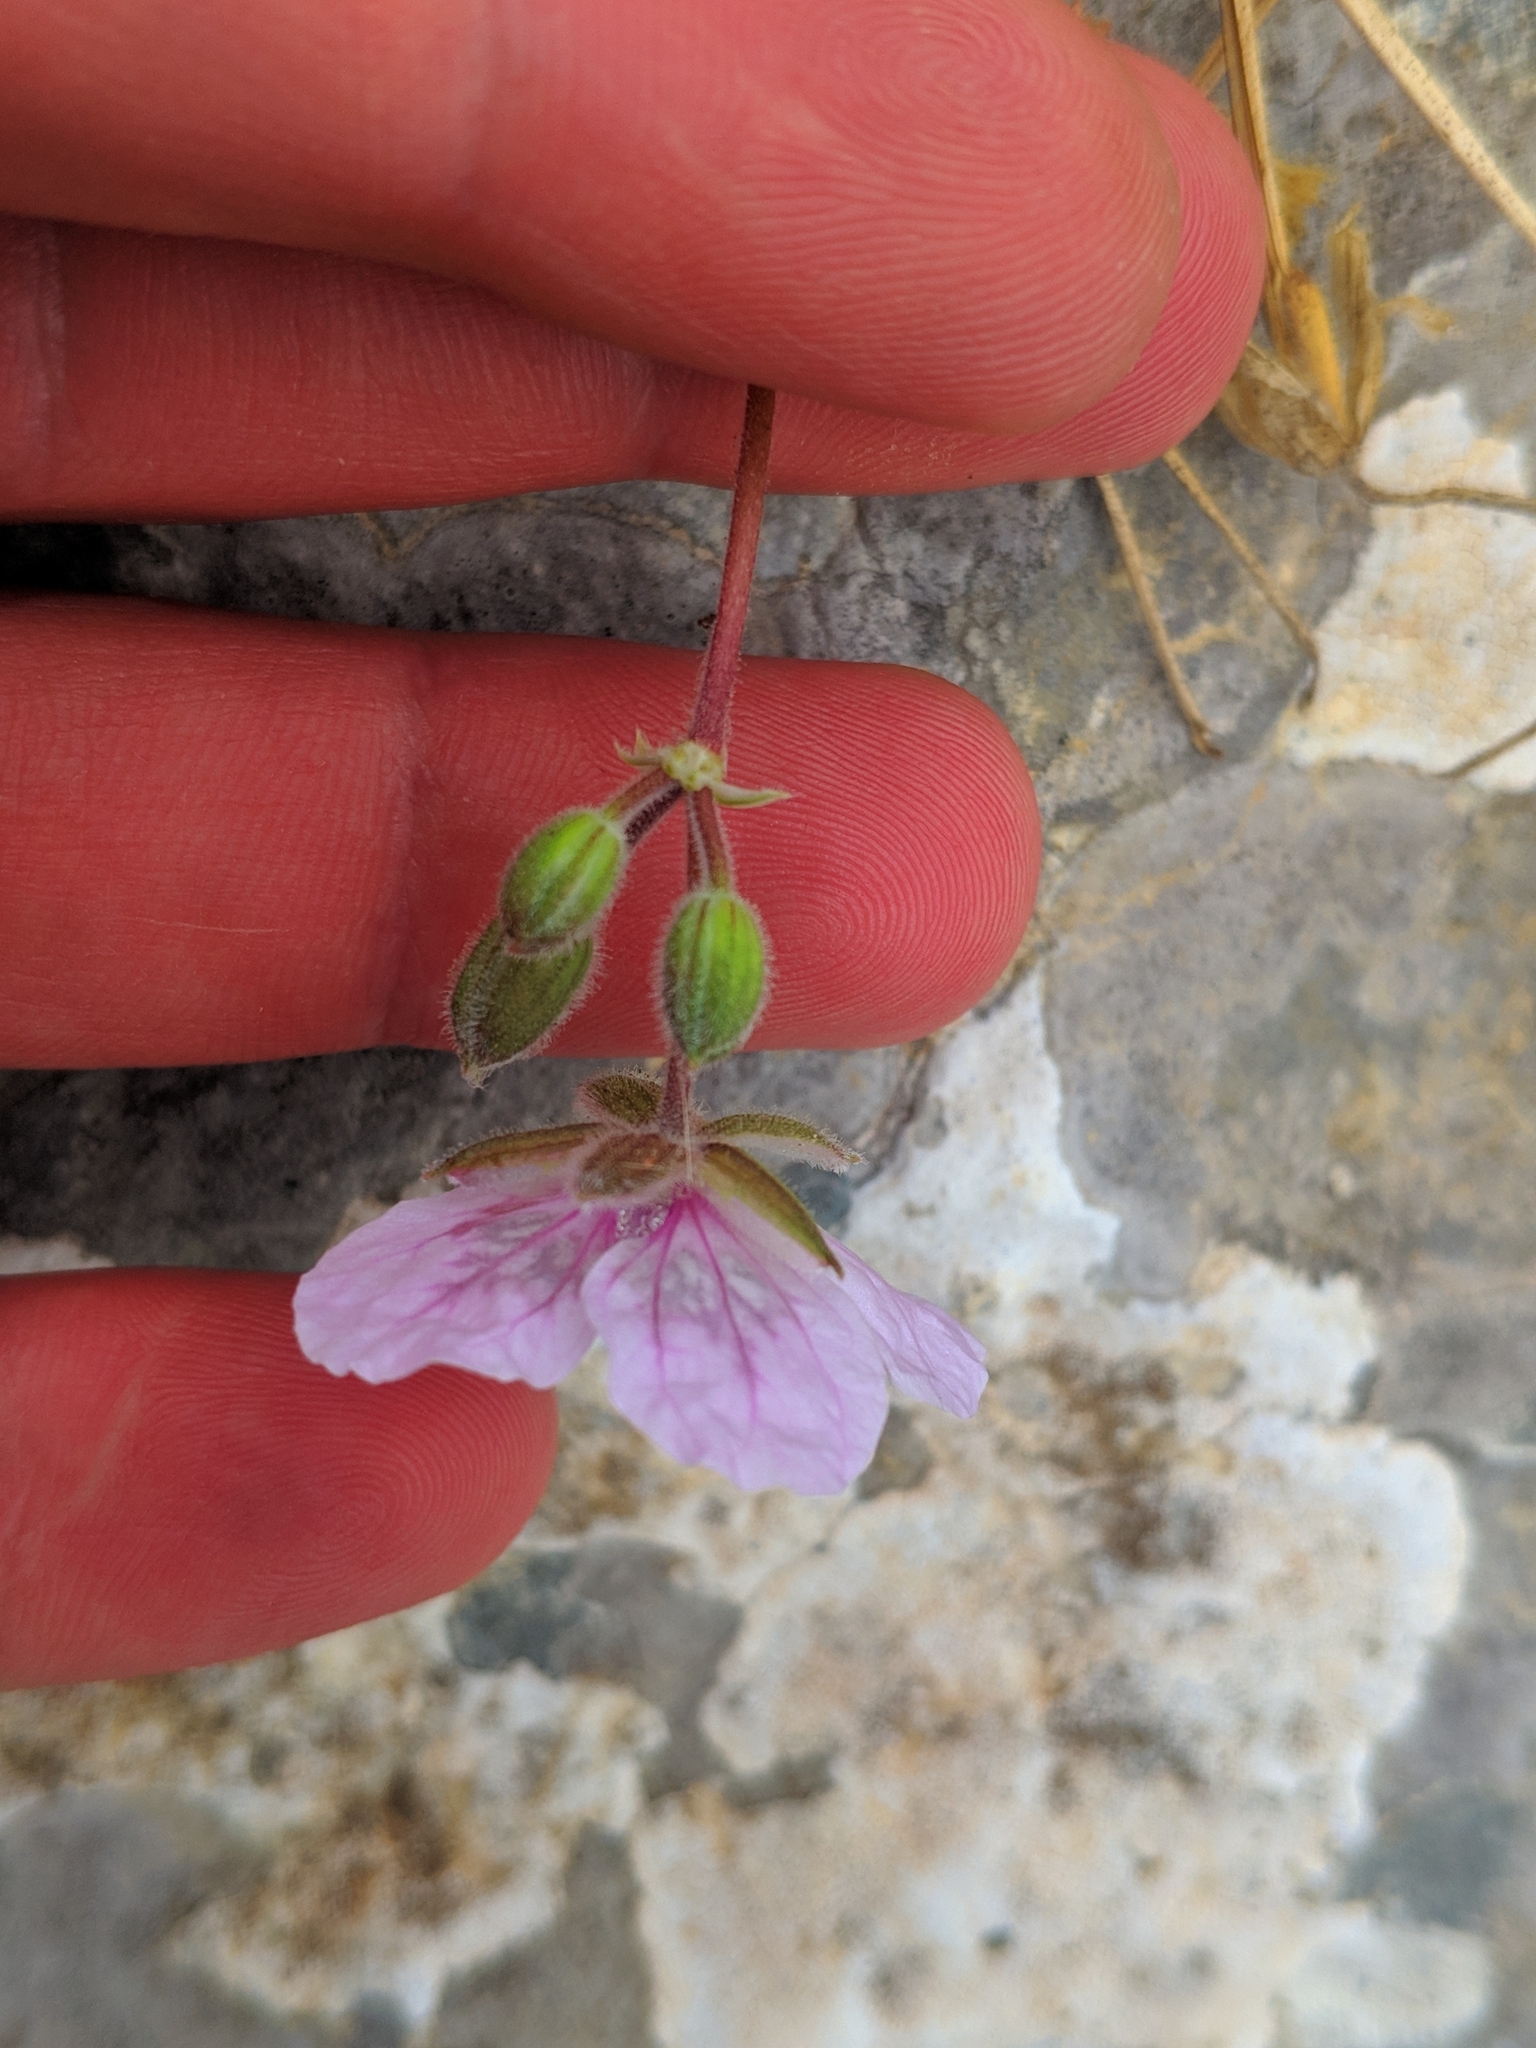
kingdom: Plantae
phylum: Tracheophyta
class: Magnoliopsida
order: Geraniales
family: Geraniaceae
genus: Erodium
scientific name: Erodium daucoides
